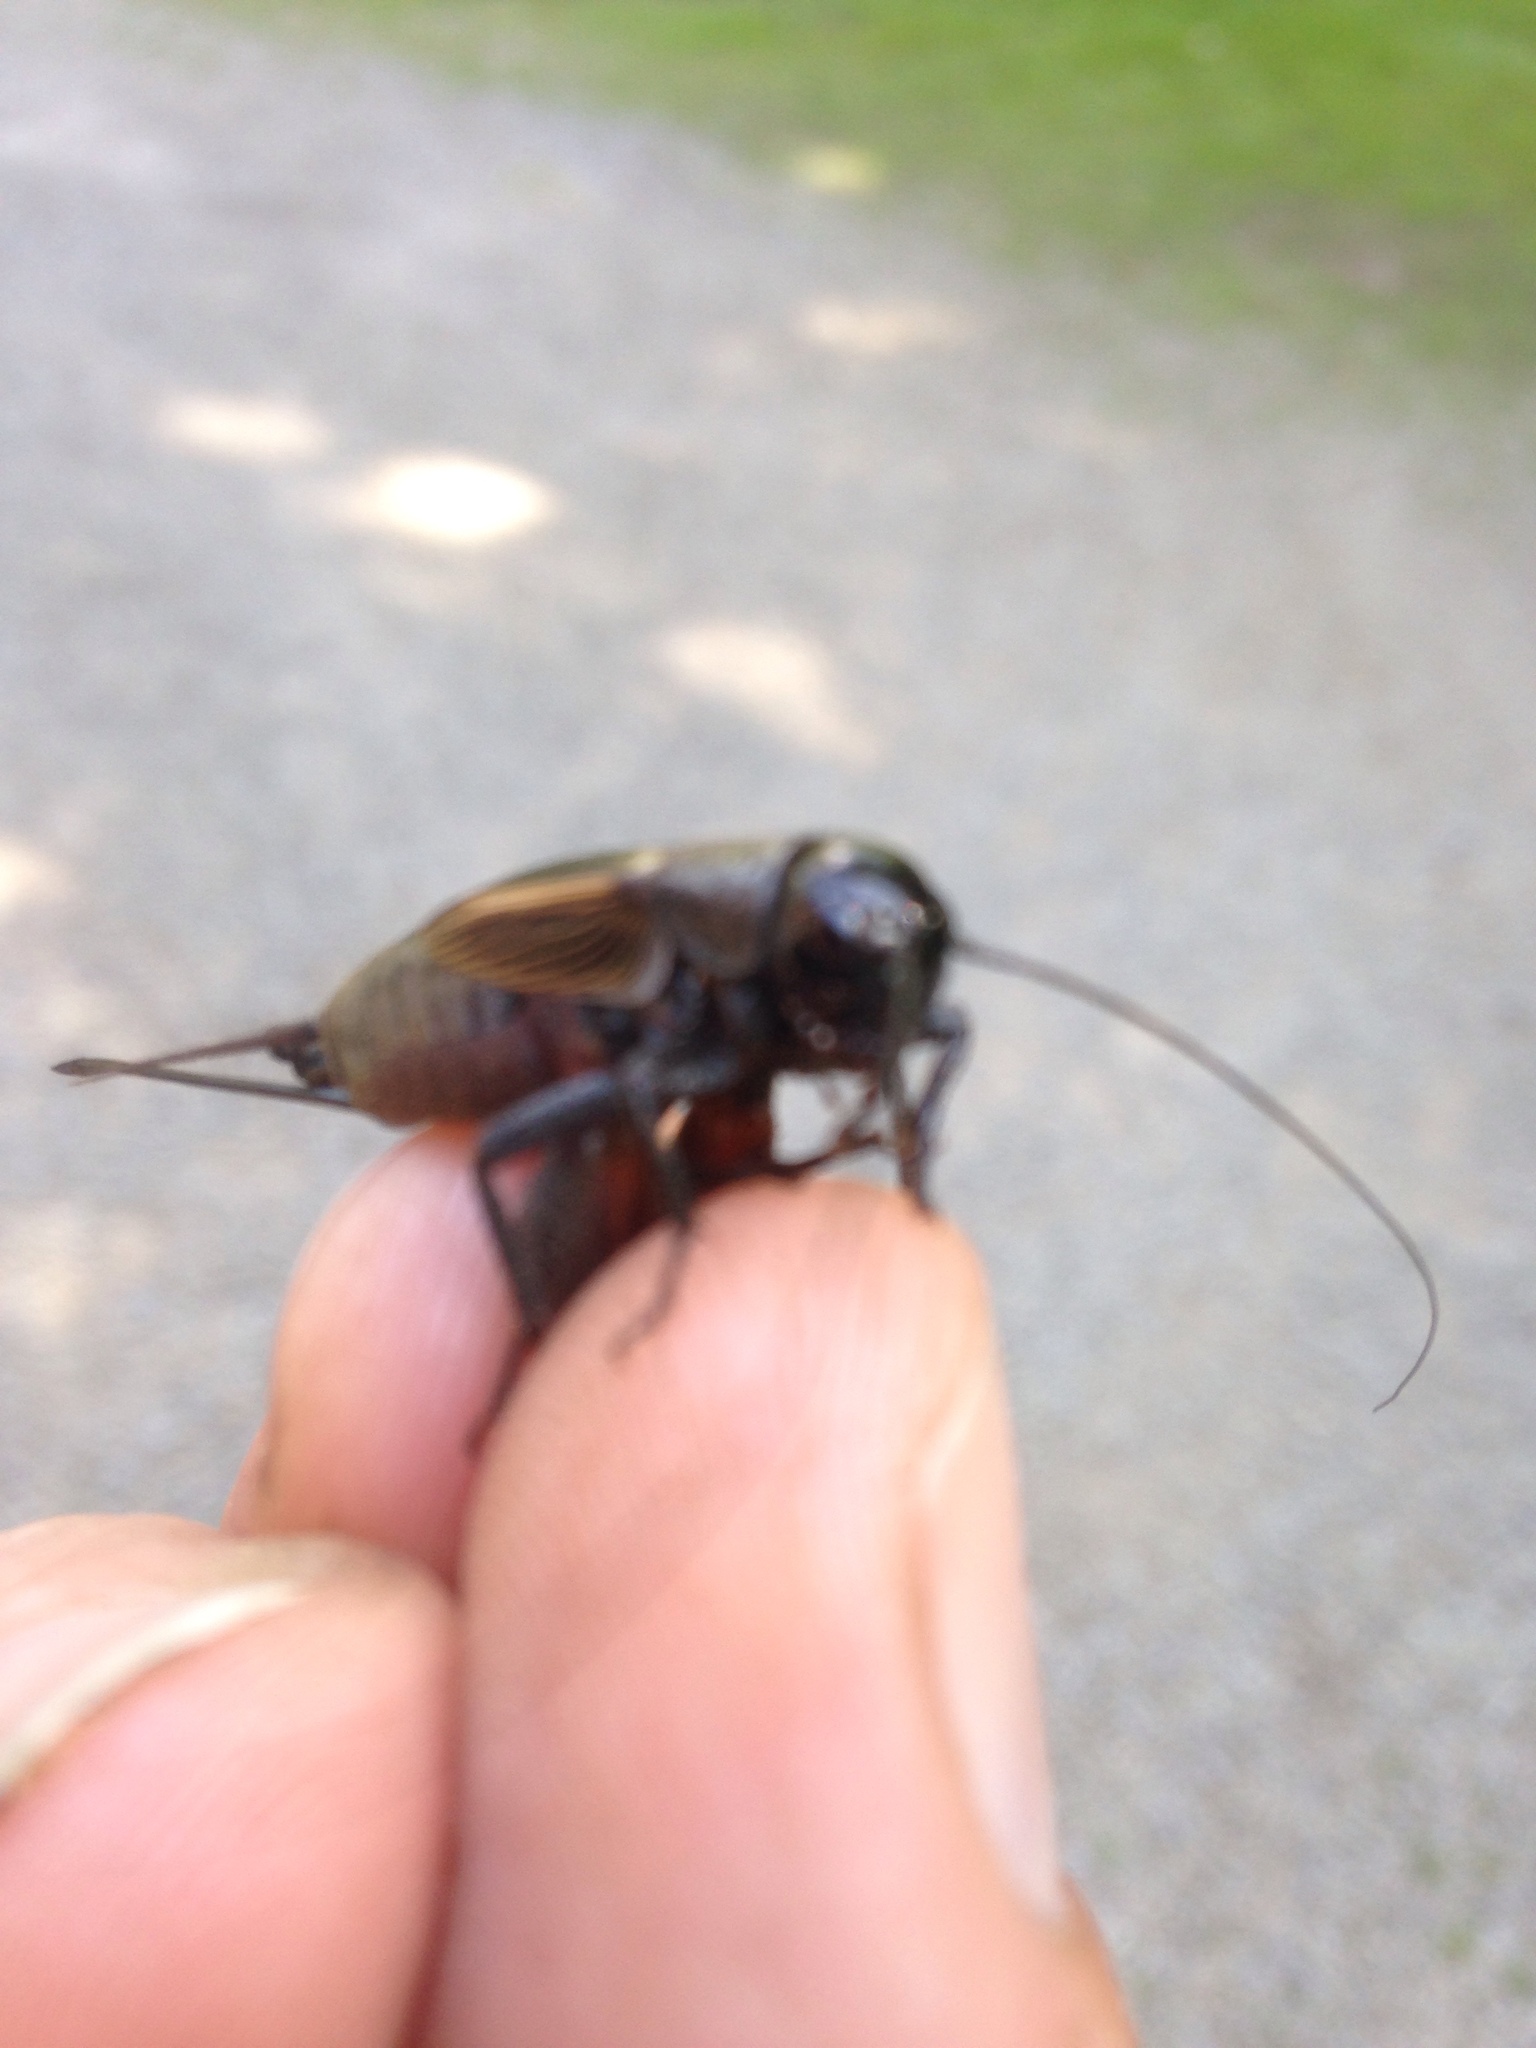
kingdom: Animalia
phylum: Arthropoda
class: Insecta
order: Orthoptera
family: Gryllidae
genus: Gryllus
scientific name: Gryllus pennsylvanicus
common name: Fall field cricket
